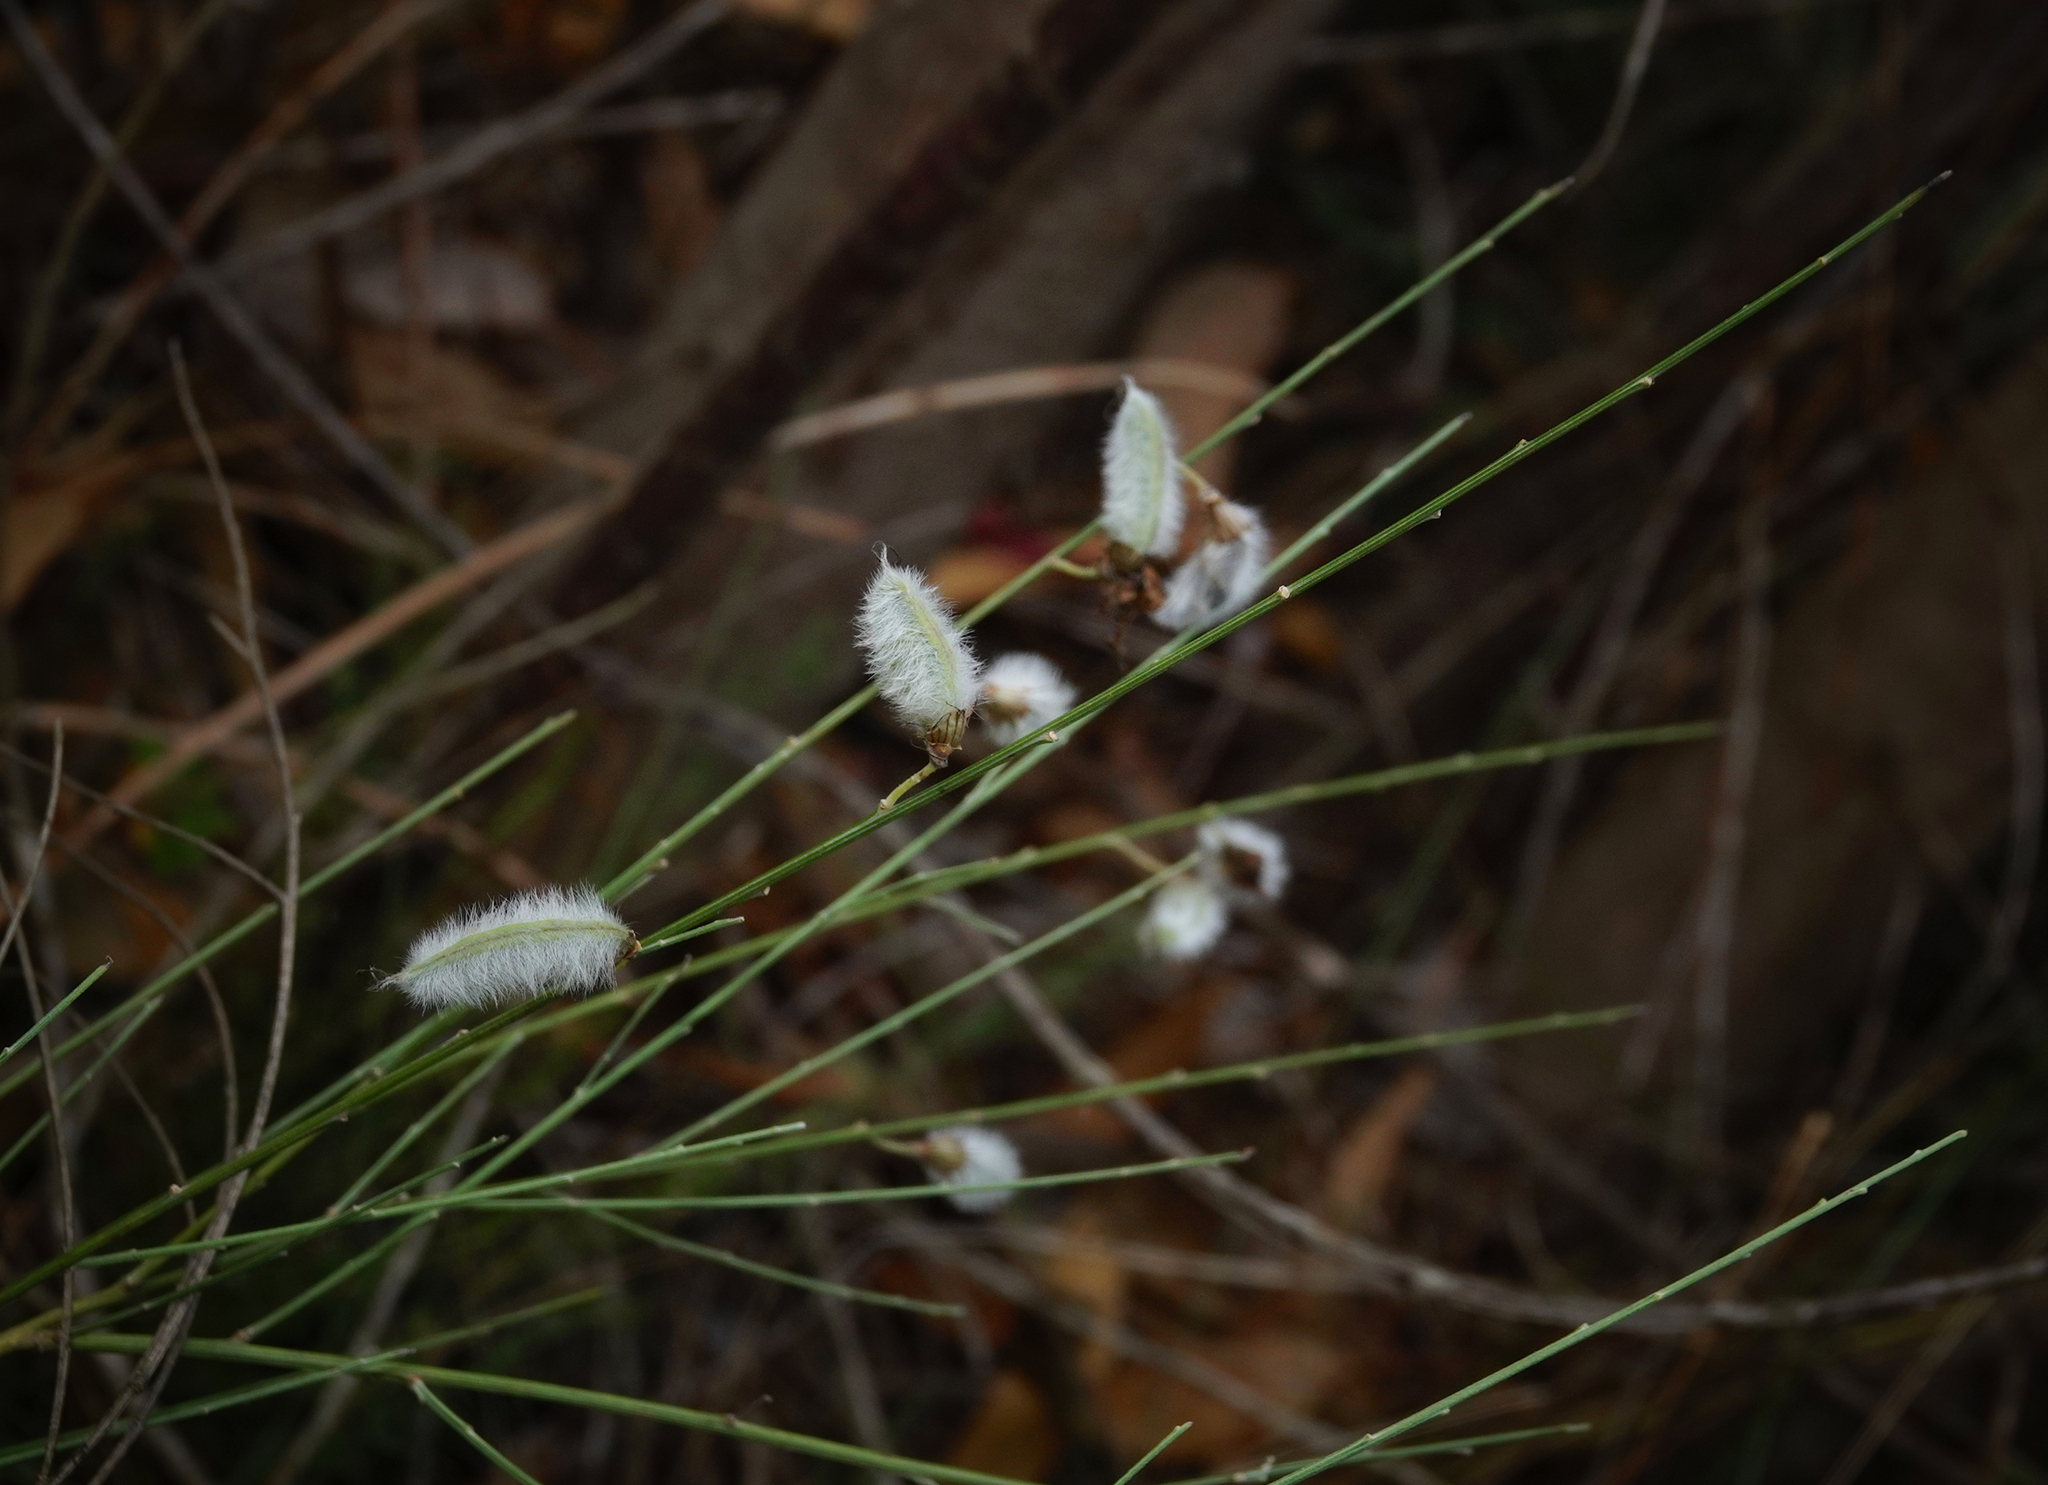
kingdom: Plantae
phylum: Tracheophyta
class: Magnoliopsida
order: Fabales
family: Fabaceae
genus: Cytisus
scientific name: Cytisus striatus
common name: Hairy-fruited broom
